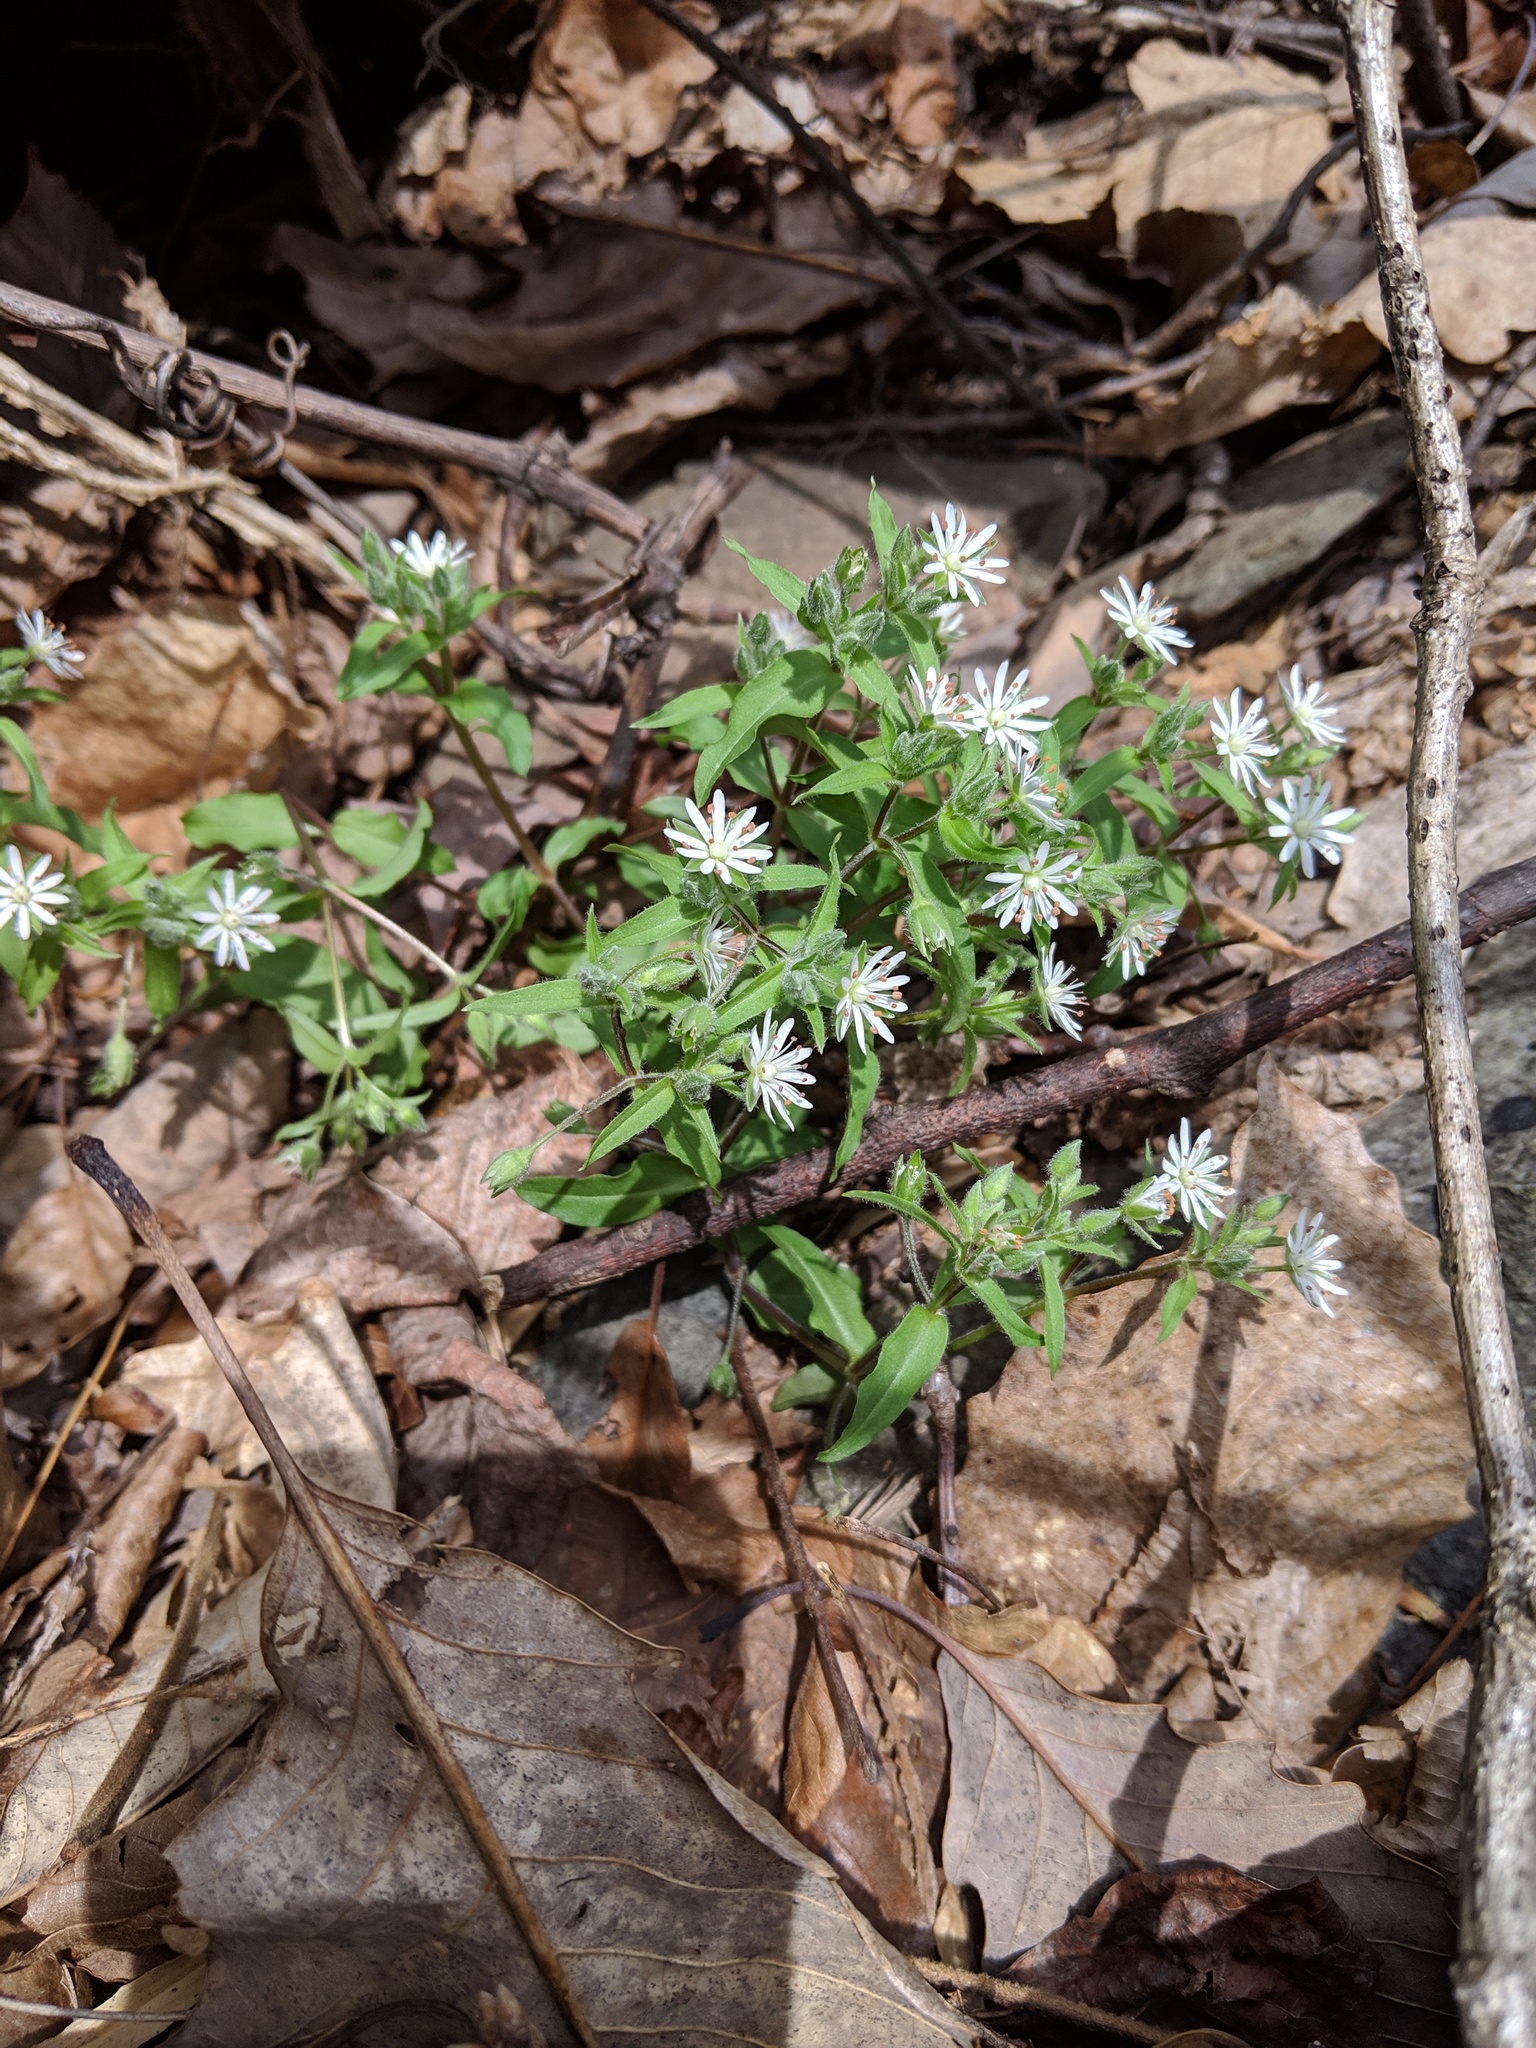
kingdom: Plantae
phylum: Tracheophyta
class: Magnoliopsida
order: Caryophyllales
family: Caryophyllaceae
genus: Stellaria
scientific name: Stellaria pubera
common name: Star chickweed
